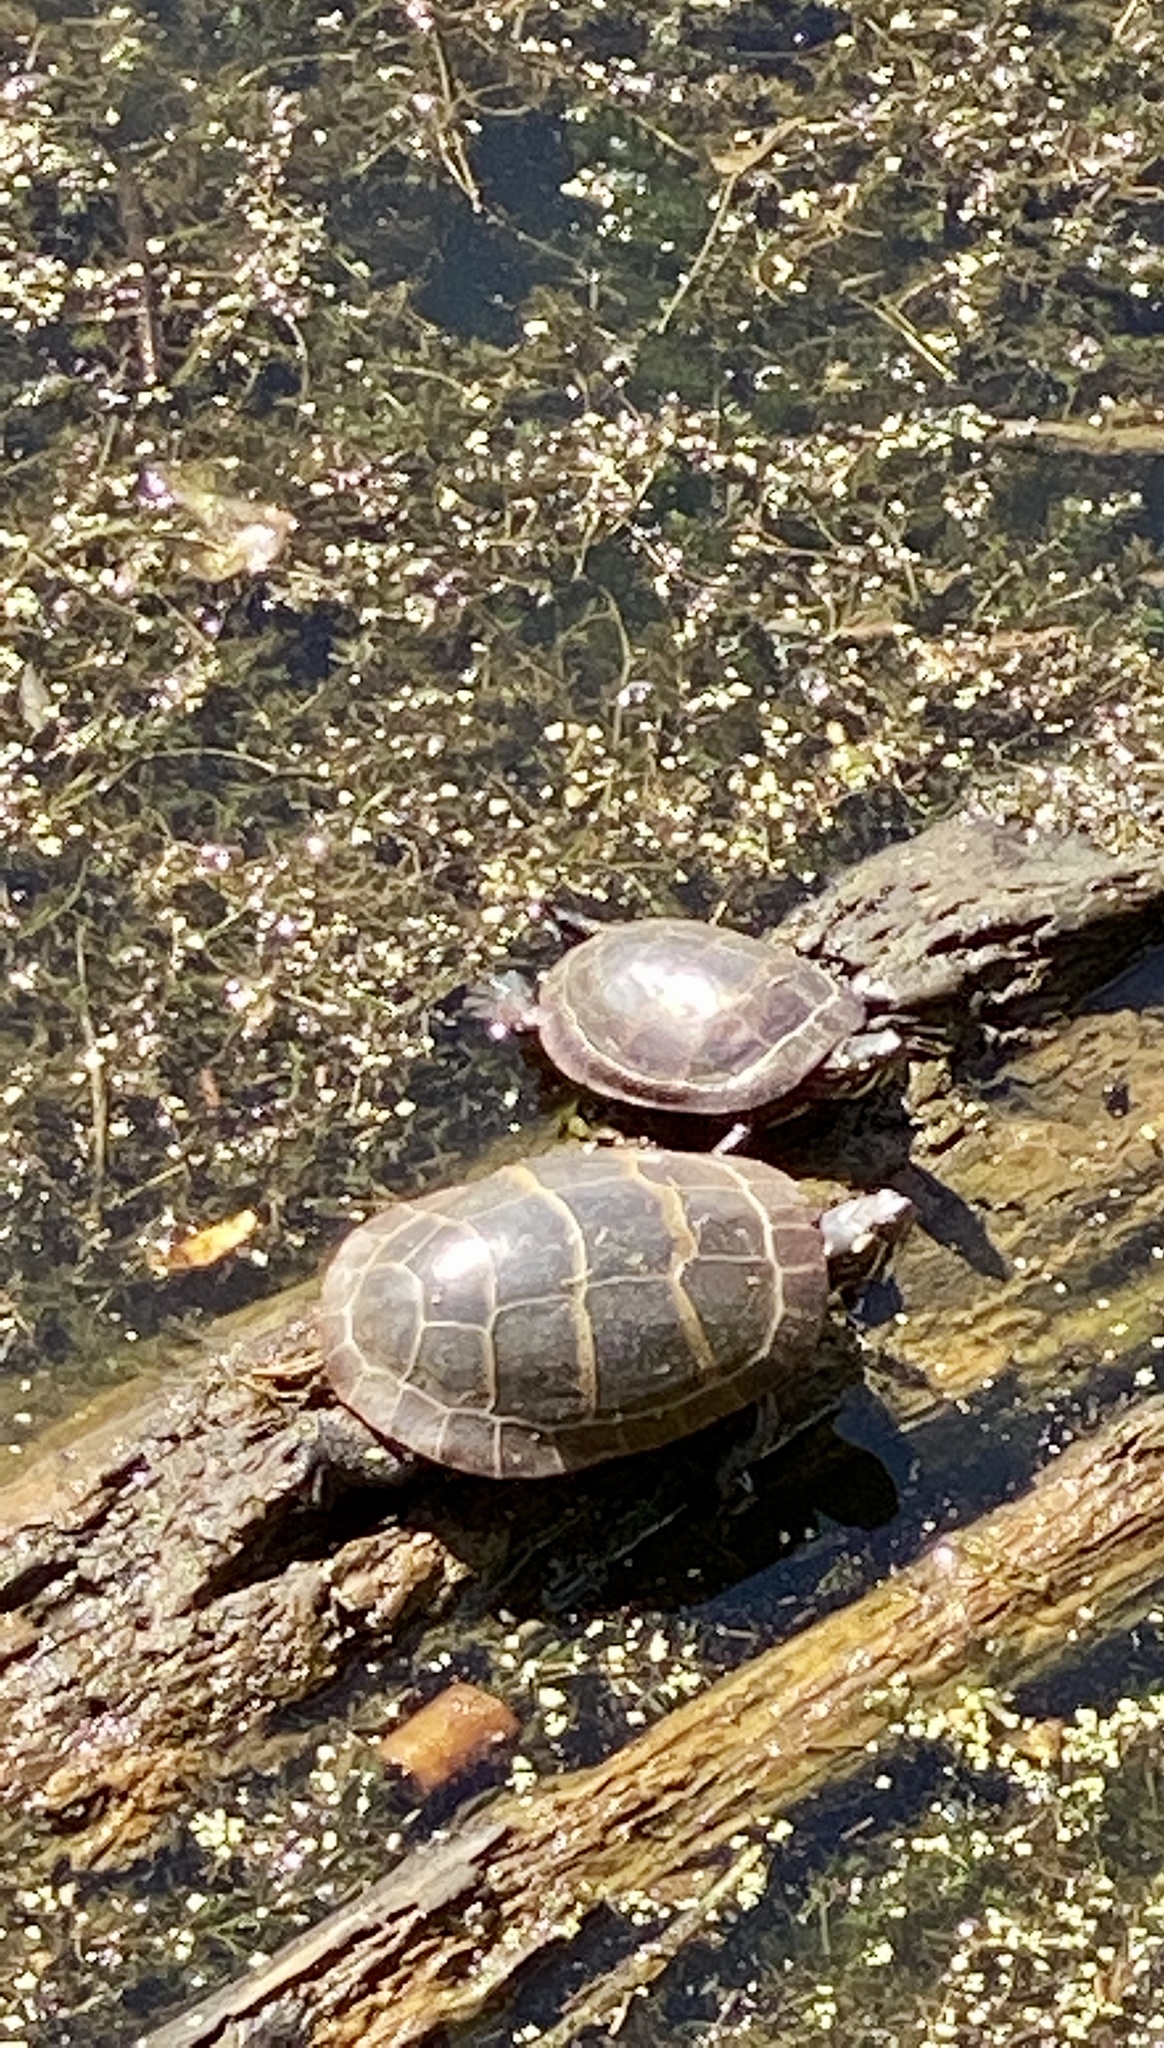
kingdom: Animalia
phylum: Chordata
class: Testudines
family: Emydidae
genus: Chrysemys
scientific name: Chrysemys picta
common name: Painted turtle
